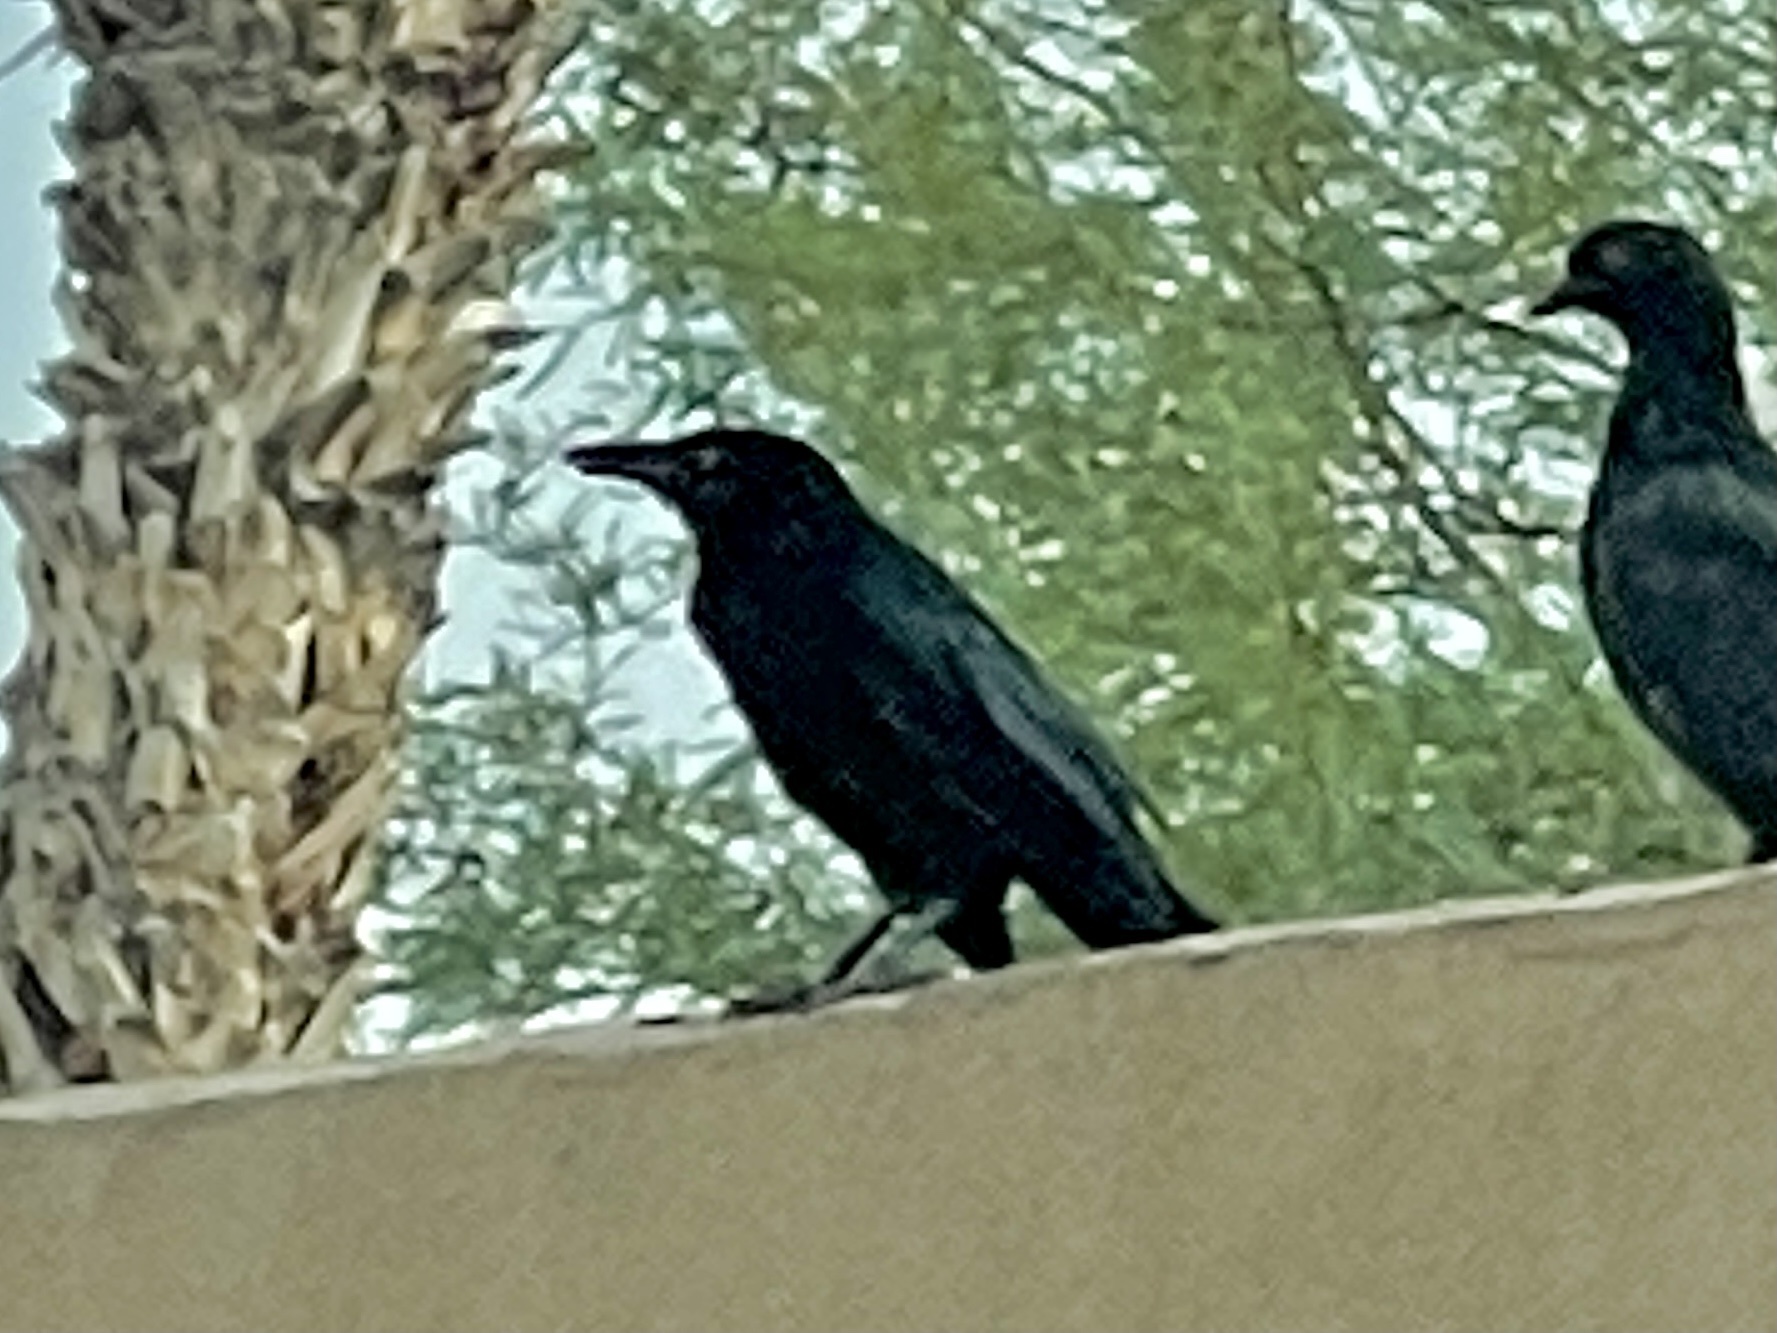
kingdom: Animalia
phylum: Chordata
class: Aves
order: Passeriformes
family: Icteridae
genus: Quiscalus
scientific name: Quiscalus mexicanus
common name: Great-tailed grackle
